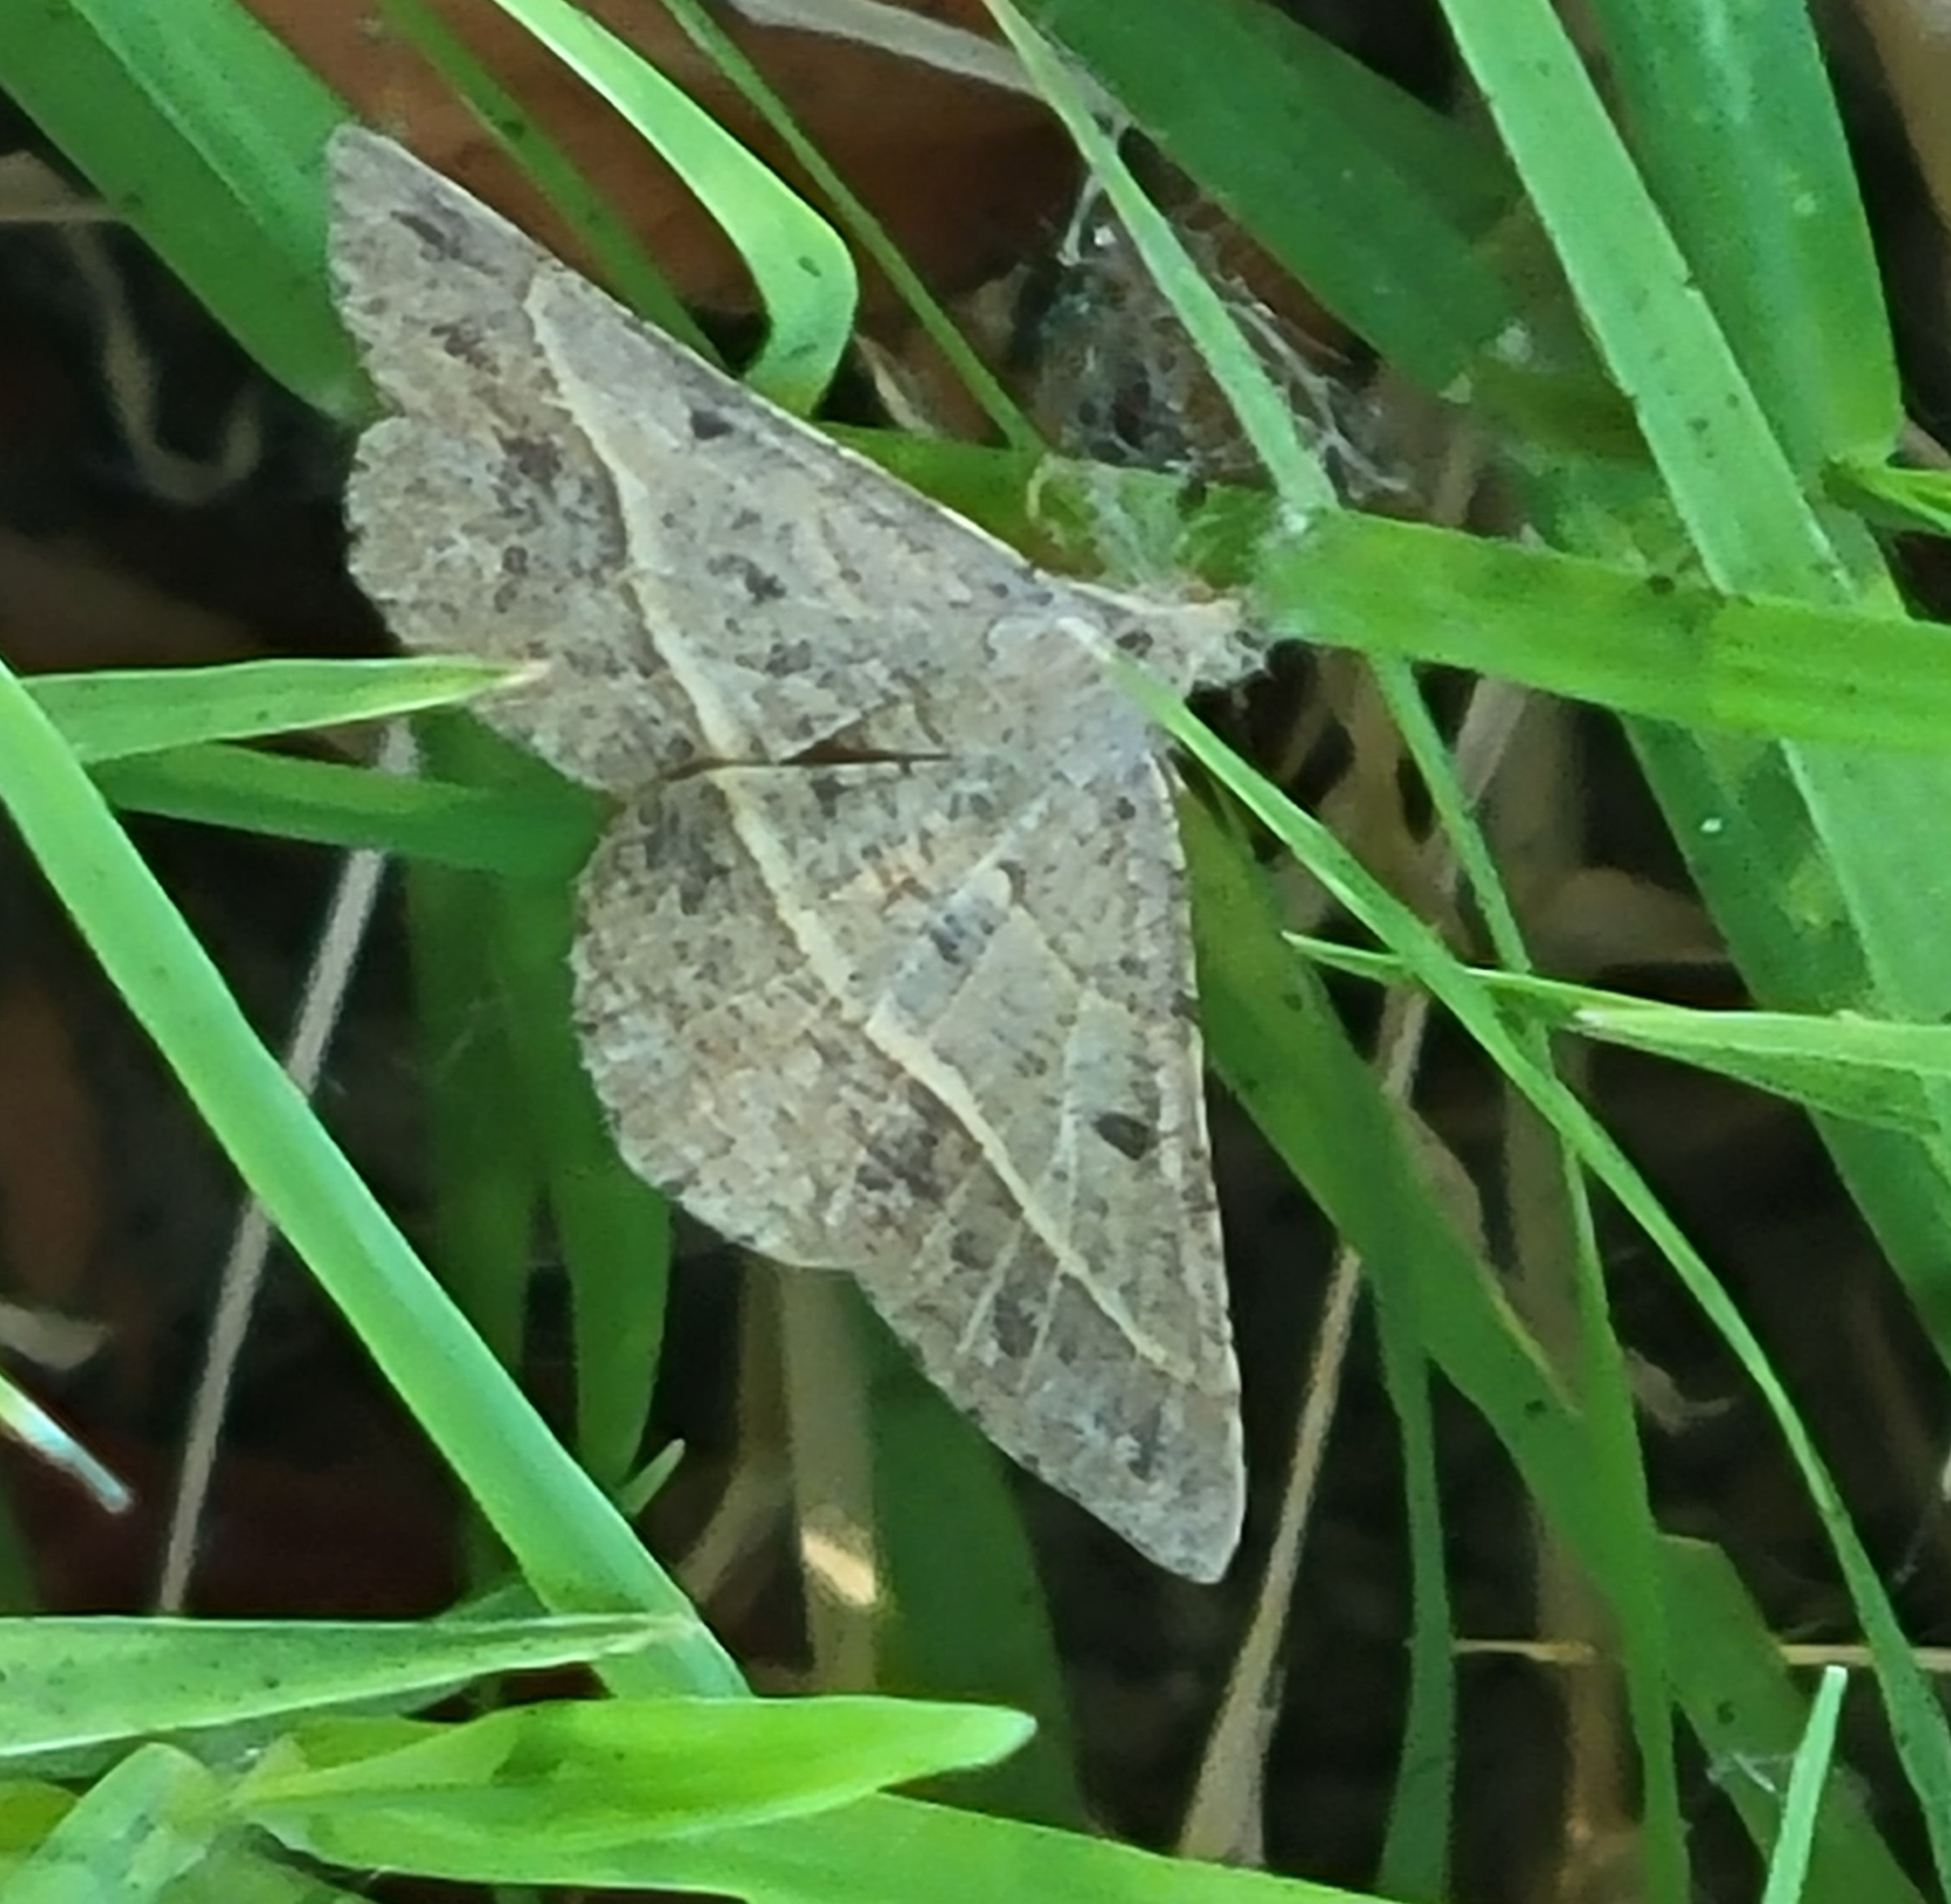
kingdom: Animalia
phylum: Arthropoda
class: Insecta
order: Lepidoptera
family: Geometridae
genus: Digrammia
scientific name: Digrammia irrorata
